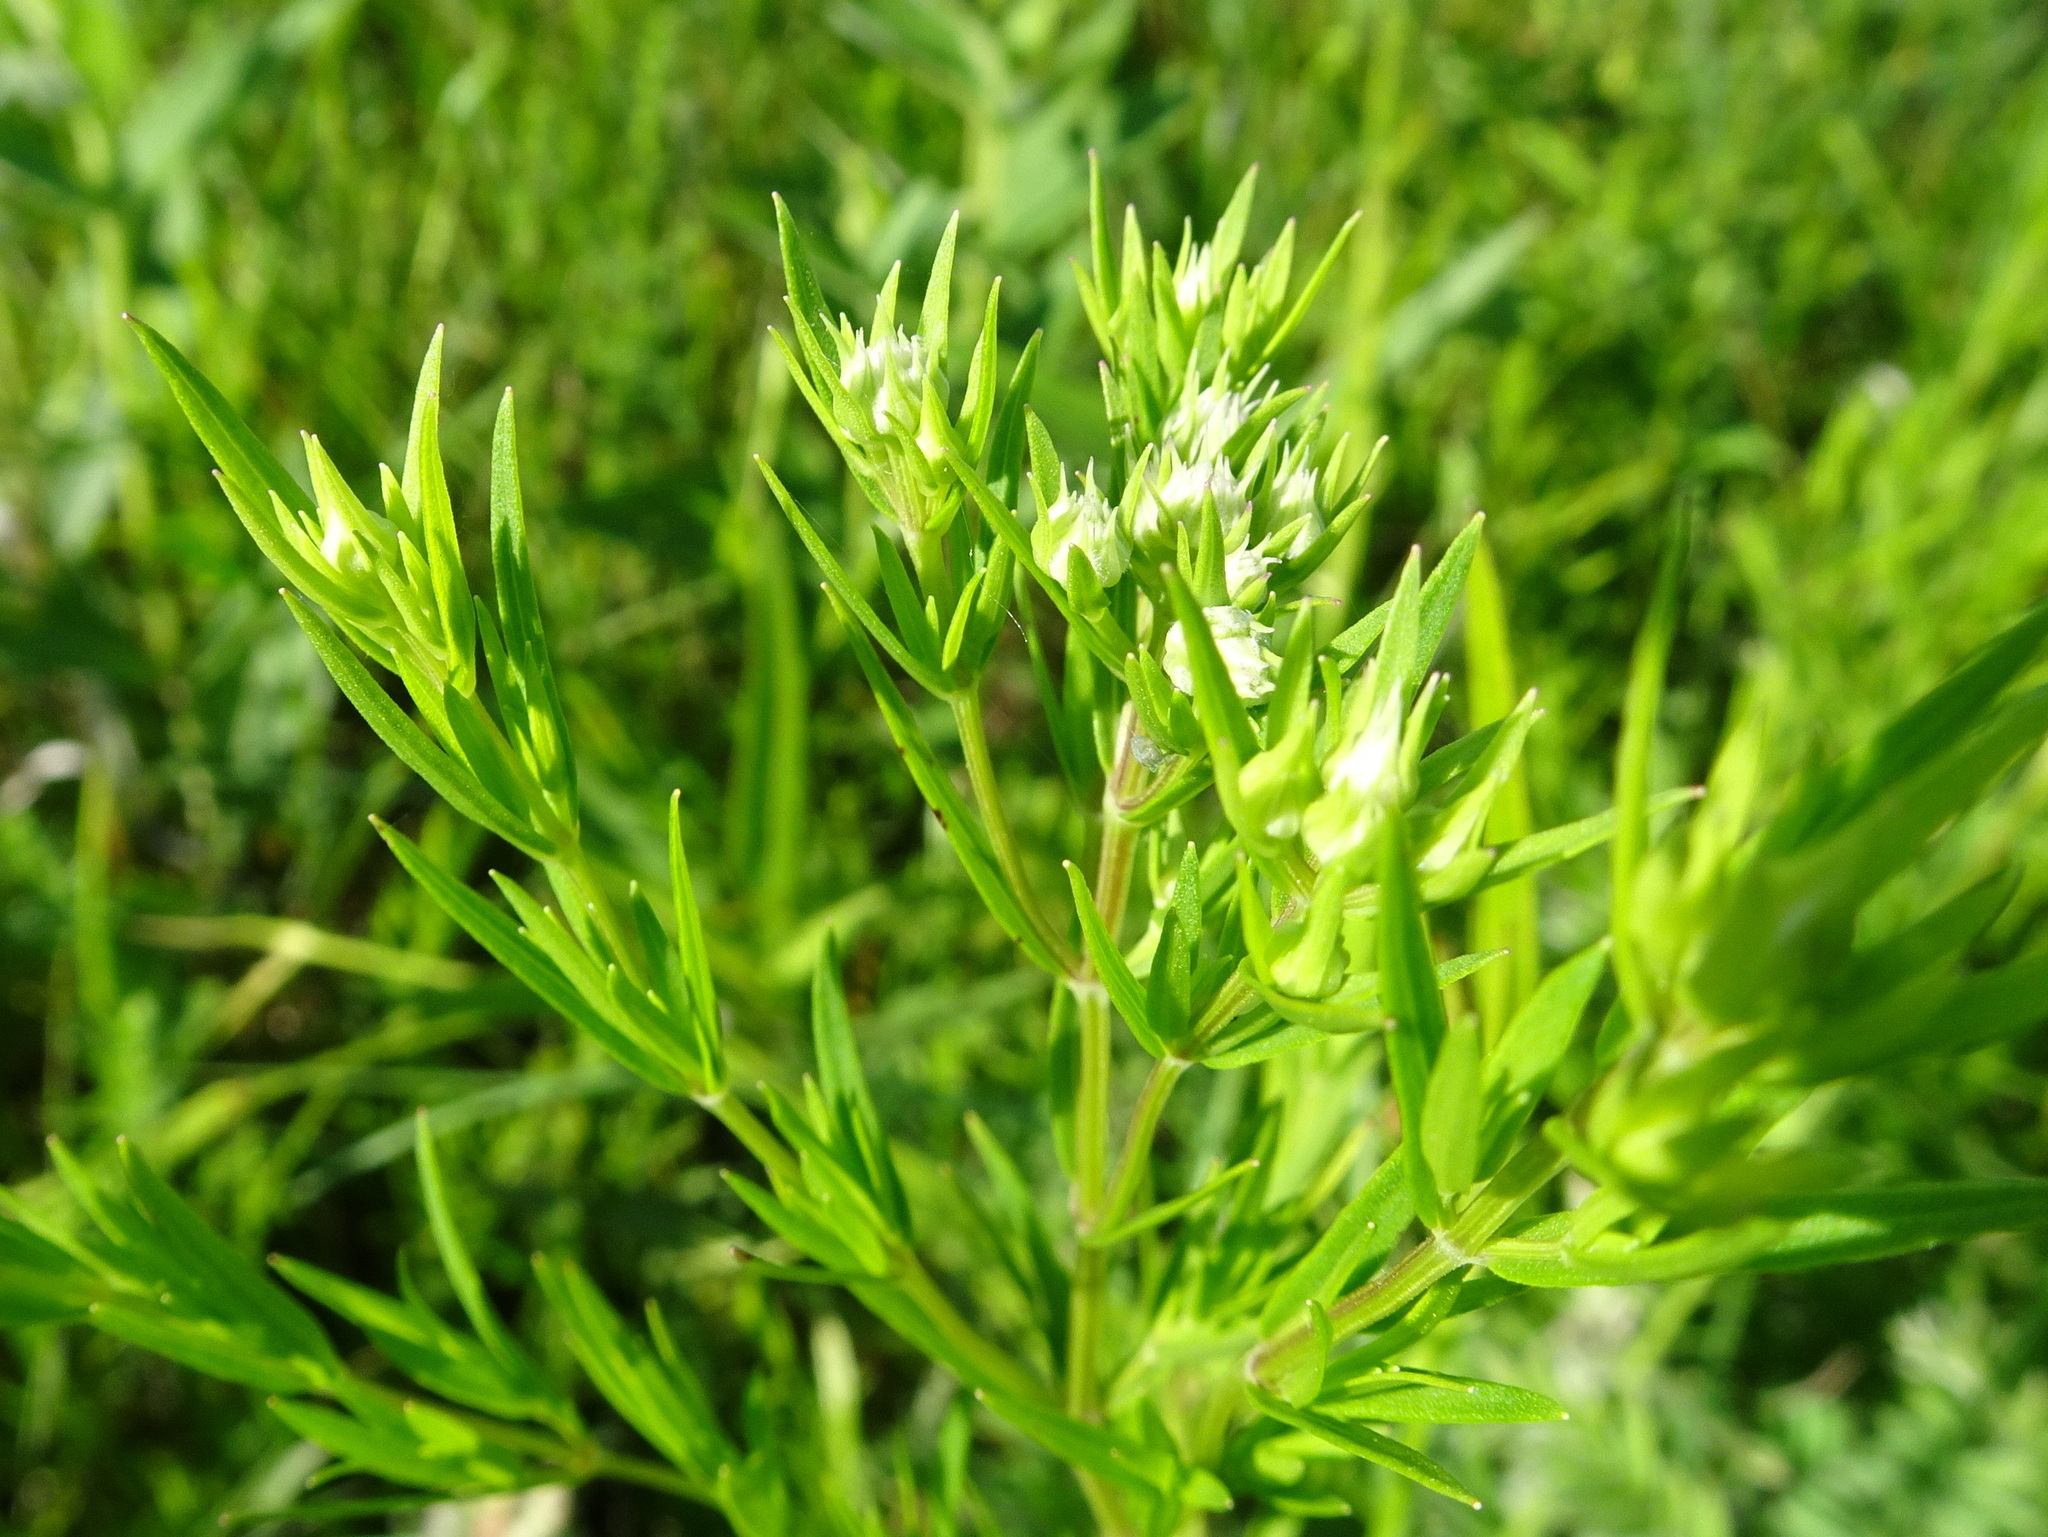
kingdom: Plantae
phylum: Tracheophyta
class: Magnoliopsida
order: Lamiales
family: Lamiaceae
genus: Pycnanthemum
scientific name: Pycnanthemum tenuifolium
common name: Narrow-leaf mountain-mint
